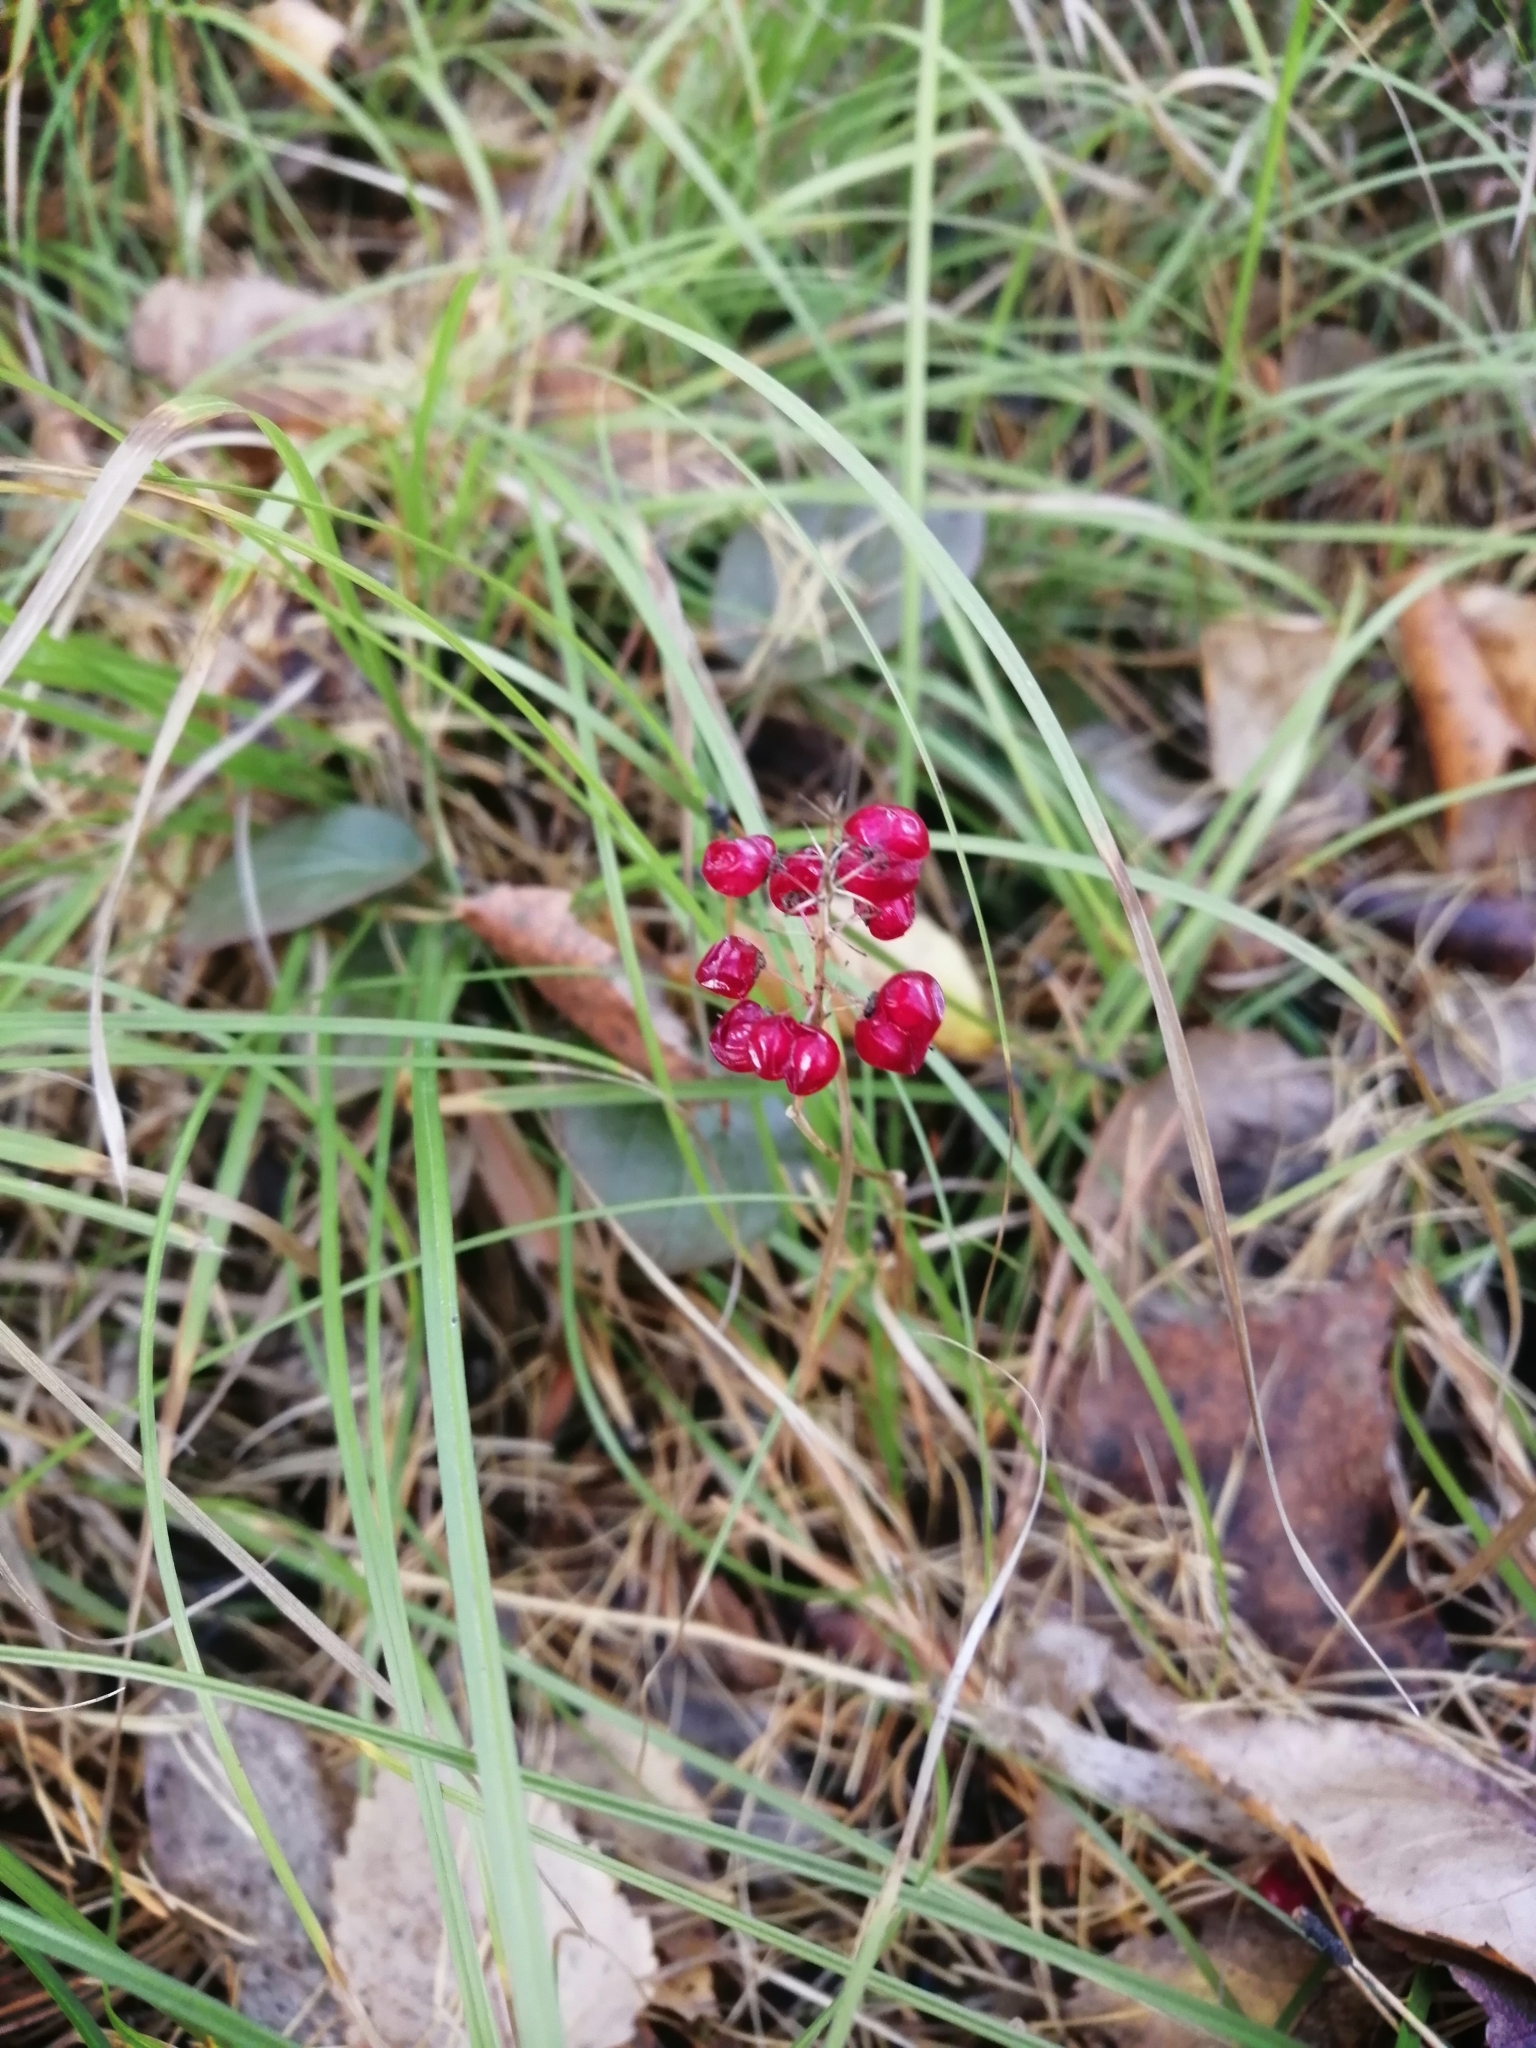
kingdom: Plantae
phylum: Tracheophyta
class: Liliopsida
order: Asparagales
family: Asparagaceae
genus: Maianthemum
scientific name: Maianthemum bifolium
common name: May lily
